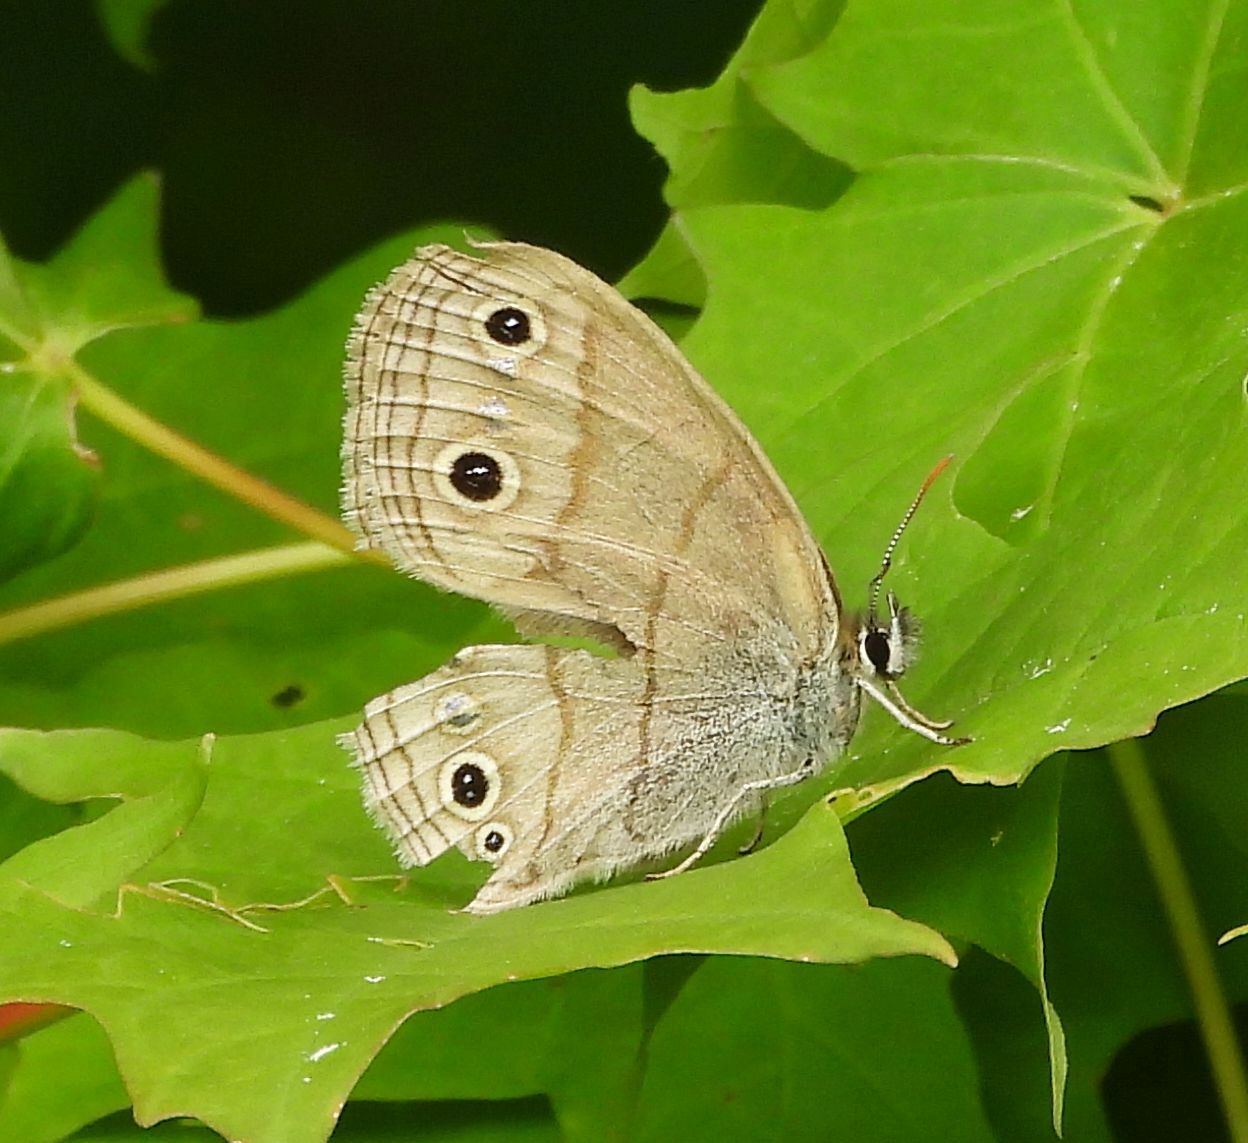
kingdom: Animalia
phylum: Arthropoda
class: Insecta
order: Lepidoptera
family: Nymphalidae
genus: Euptychia
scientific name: Euptychia cymela
